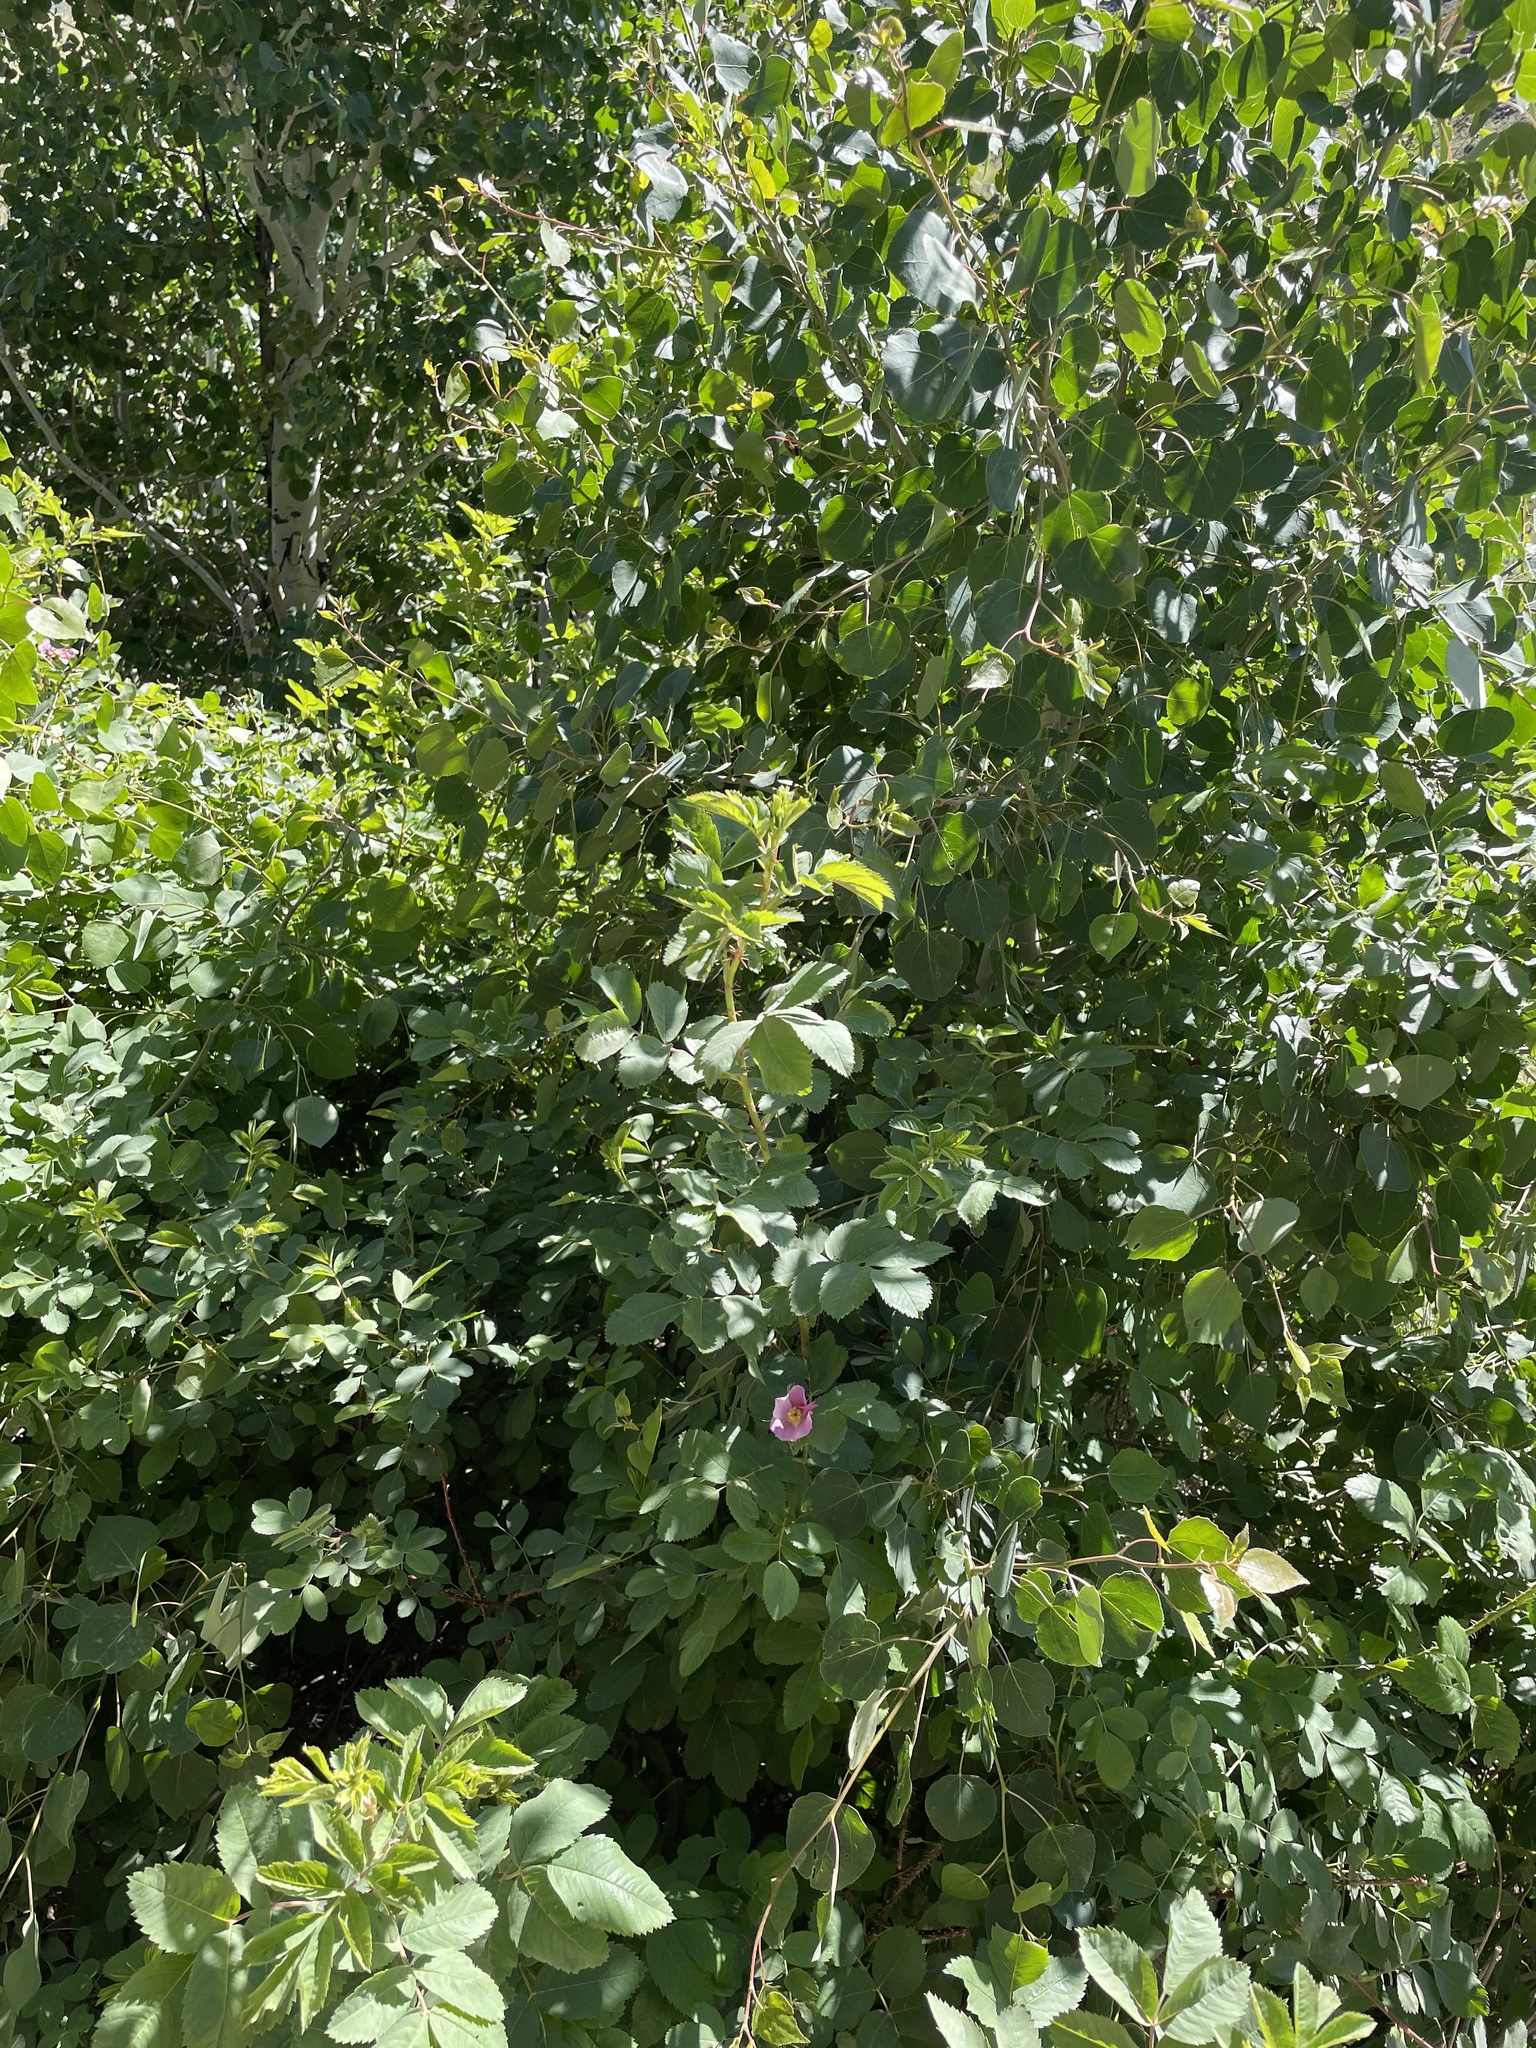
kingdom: Plantae
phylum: Tracheophyta
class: Magnoliopsida
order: Rosales
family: Rosaceae
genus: Rosa
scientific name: Rosa woodsii
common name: Woods's rose
